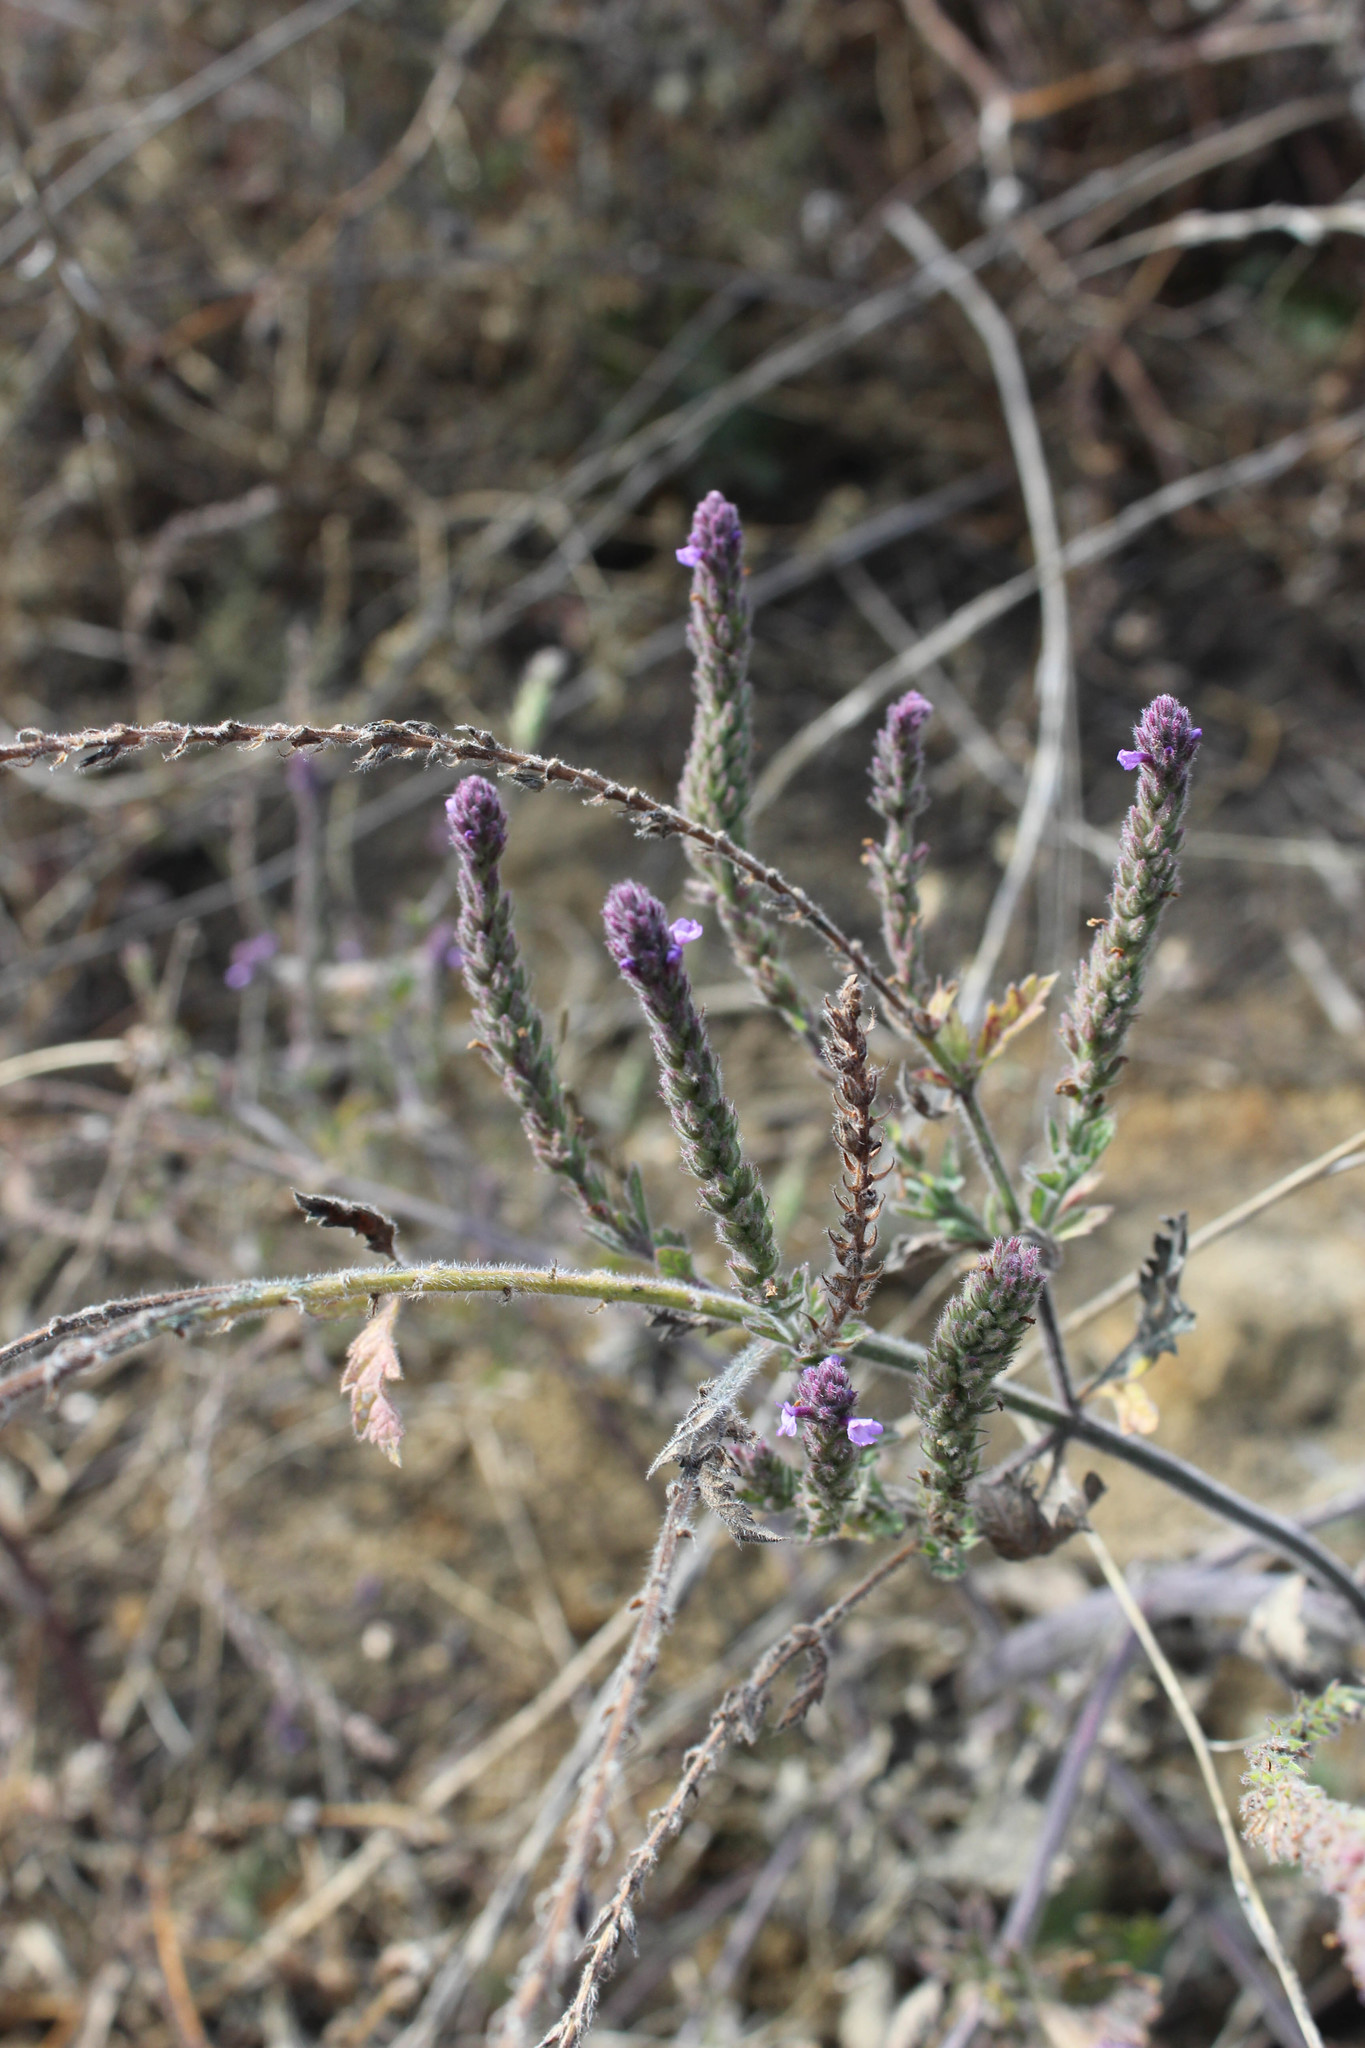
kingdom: Plantae
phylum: Tracheophyta
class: Magnoliopsida
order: Lamiales
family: Verbenaceae
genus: Verbena
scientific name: Verbena lasiostachys
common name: Vervain
